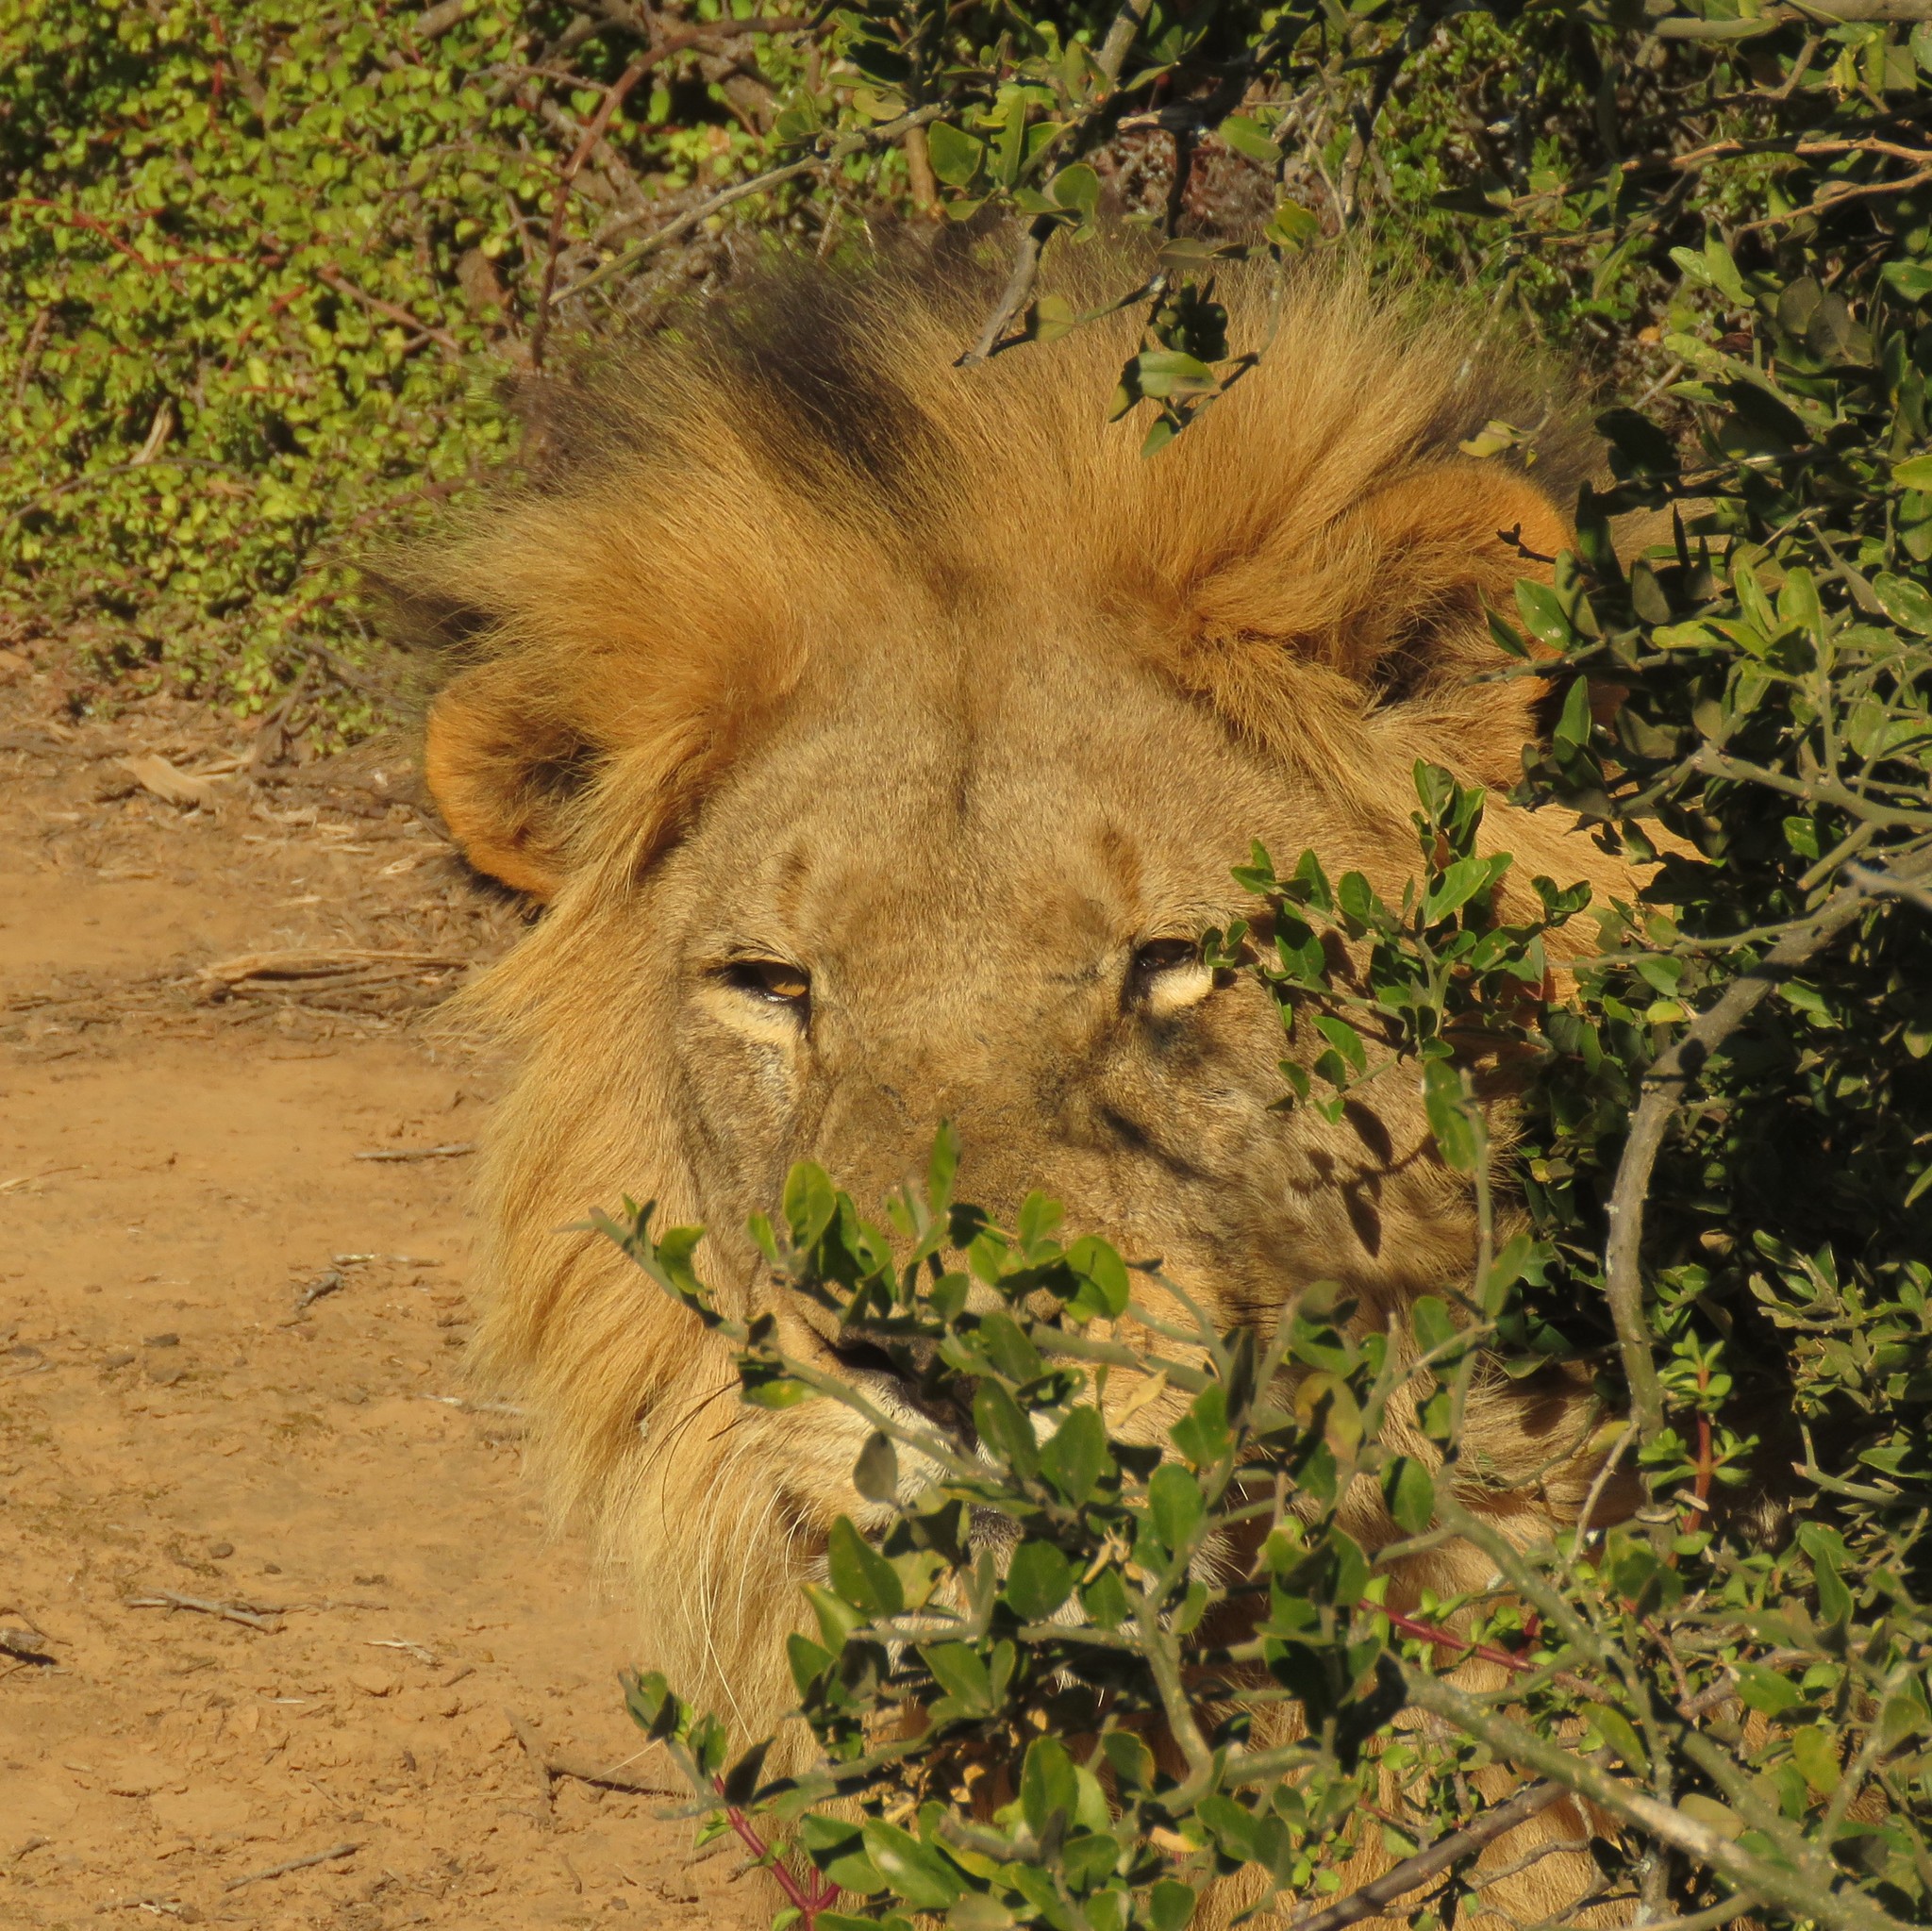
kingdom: Animalia
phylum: Chordata
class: Mammalia
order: Carnivora
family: Felidae
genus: Panthera
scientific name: Panthera leo
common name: Lion
